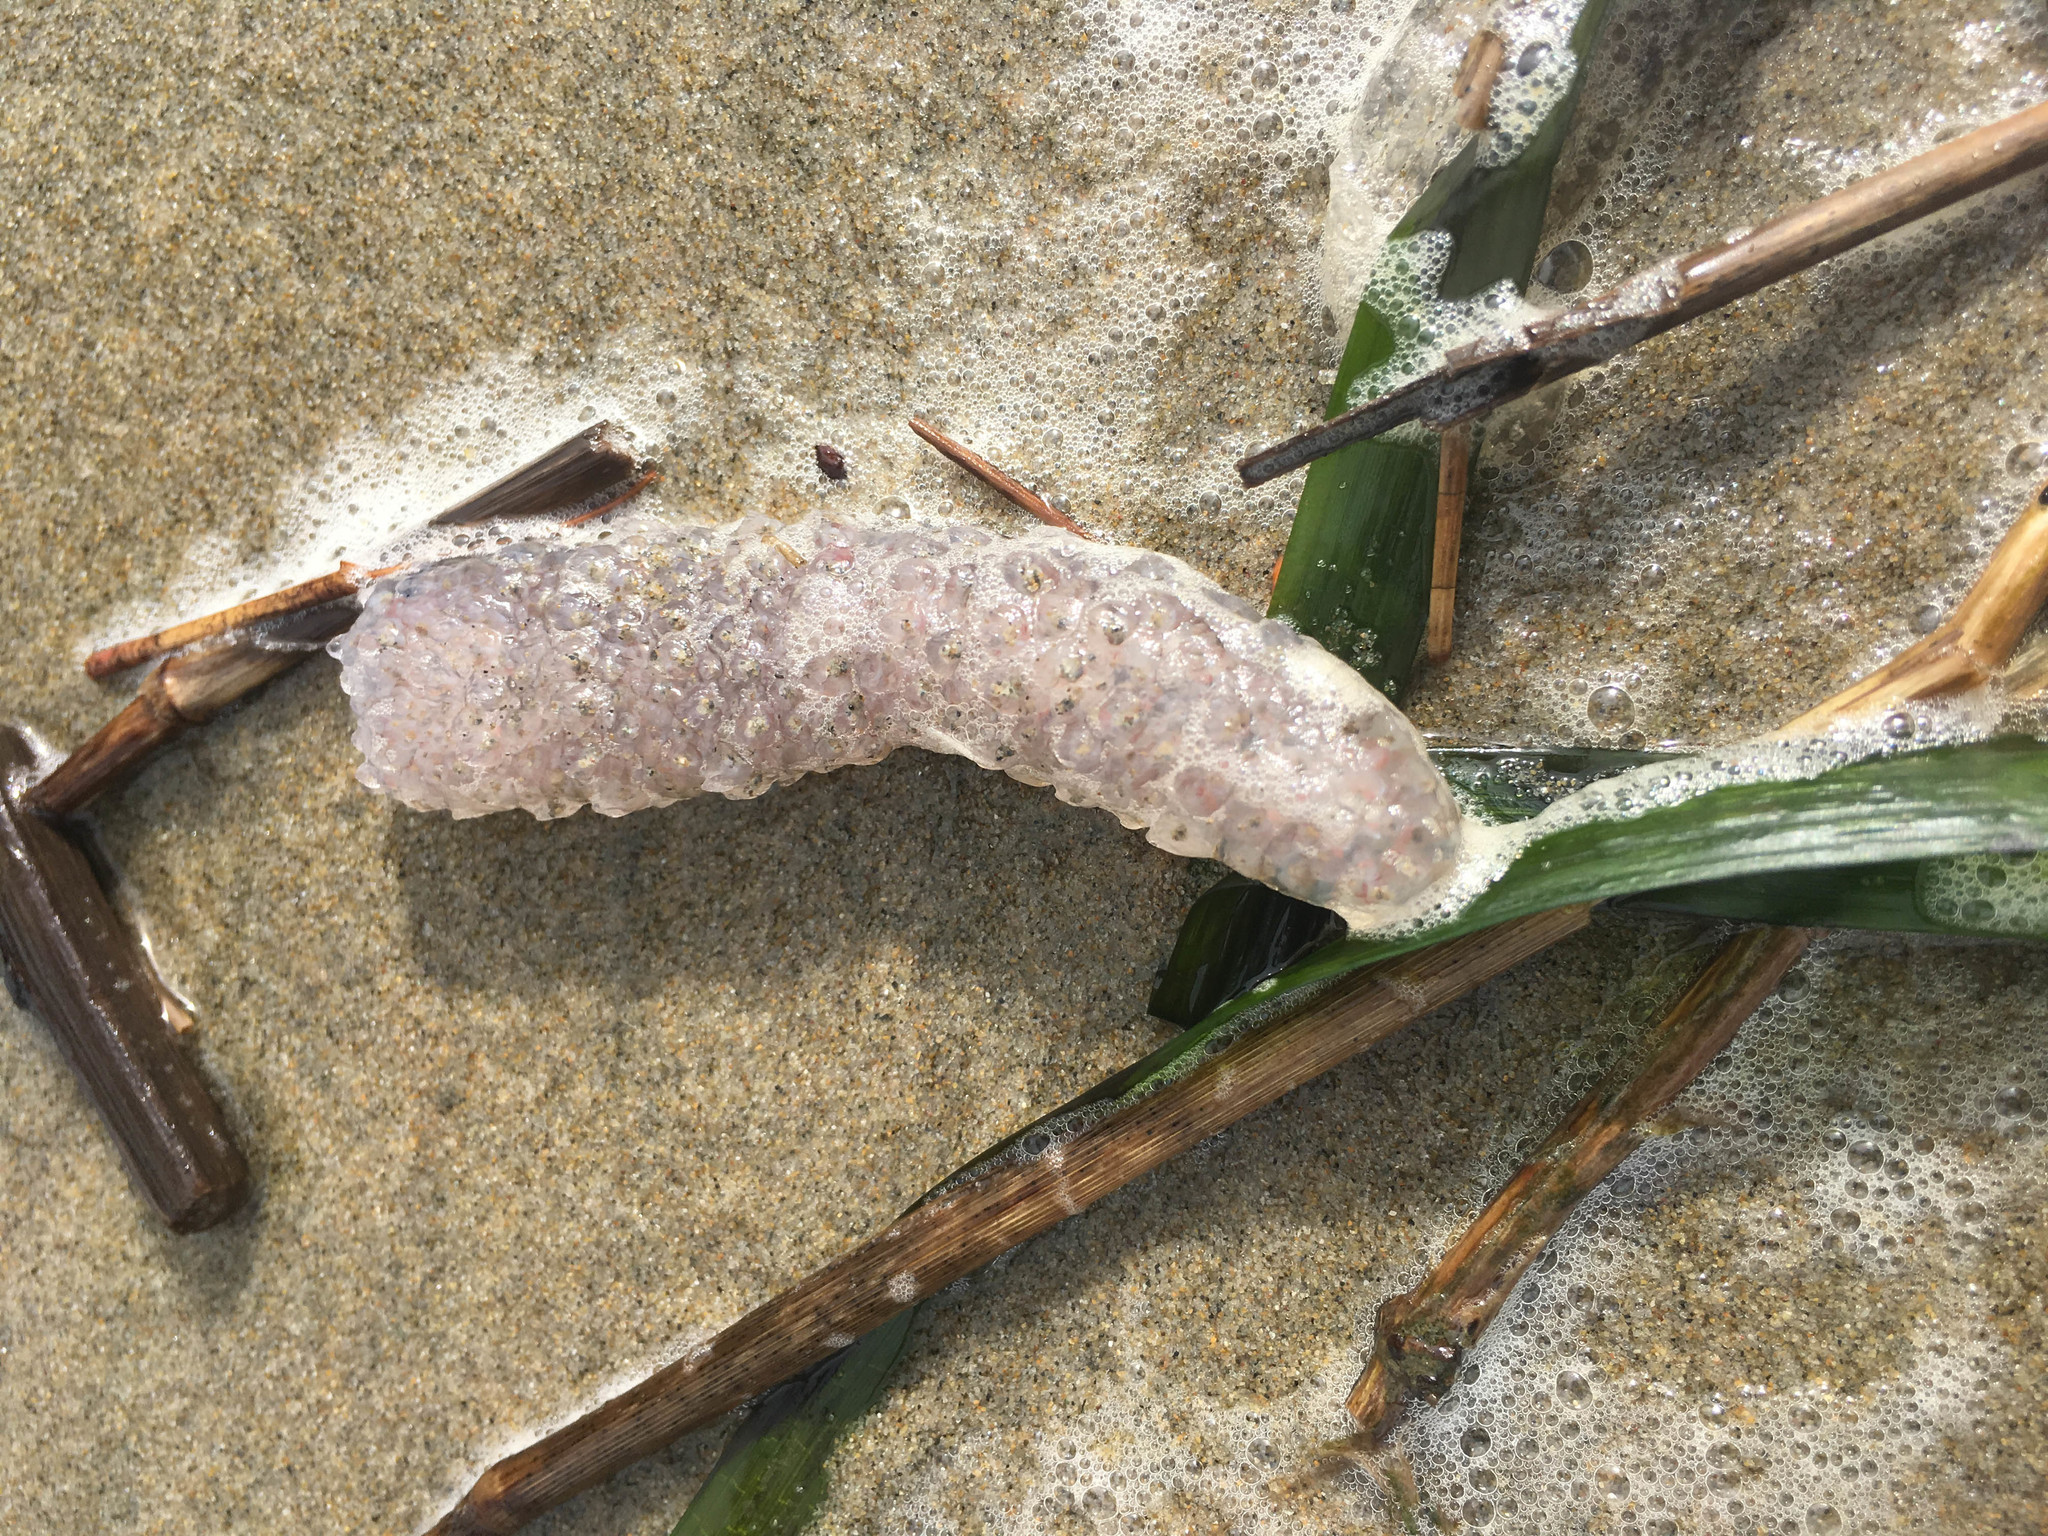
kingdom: Animalia
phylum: Chordata
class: Thaliacea
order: Pyrosomatida
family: Pyrosomatidae
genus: Pyrosoma
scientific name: Pyrosoma atlanticum
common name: Atlantic pyrosomes
